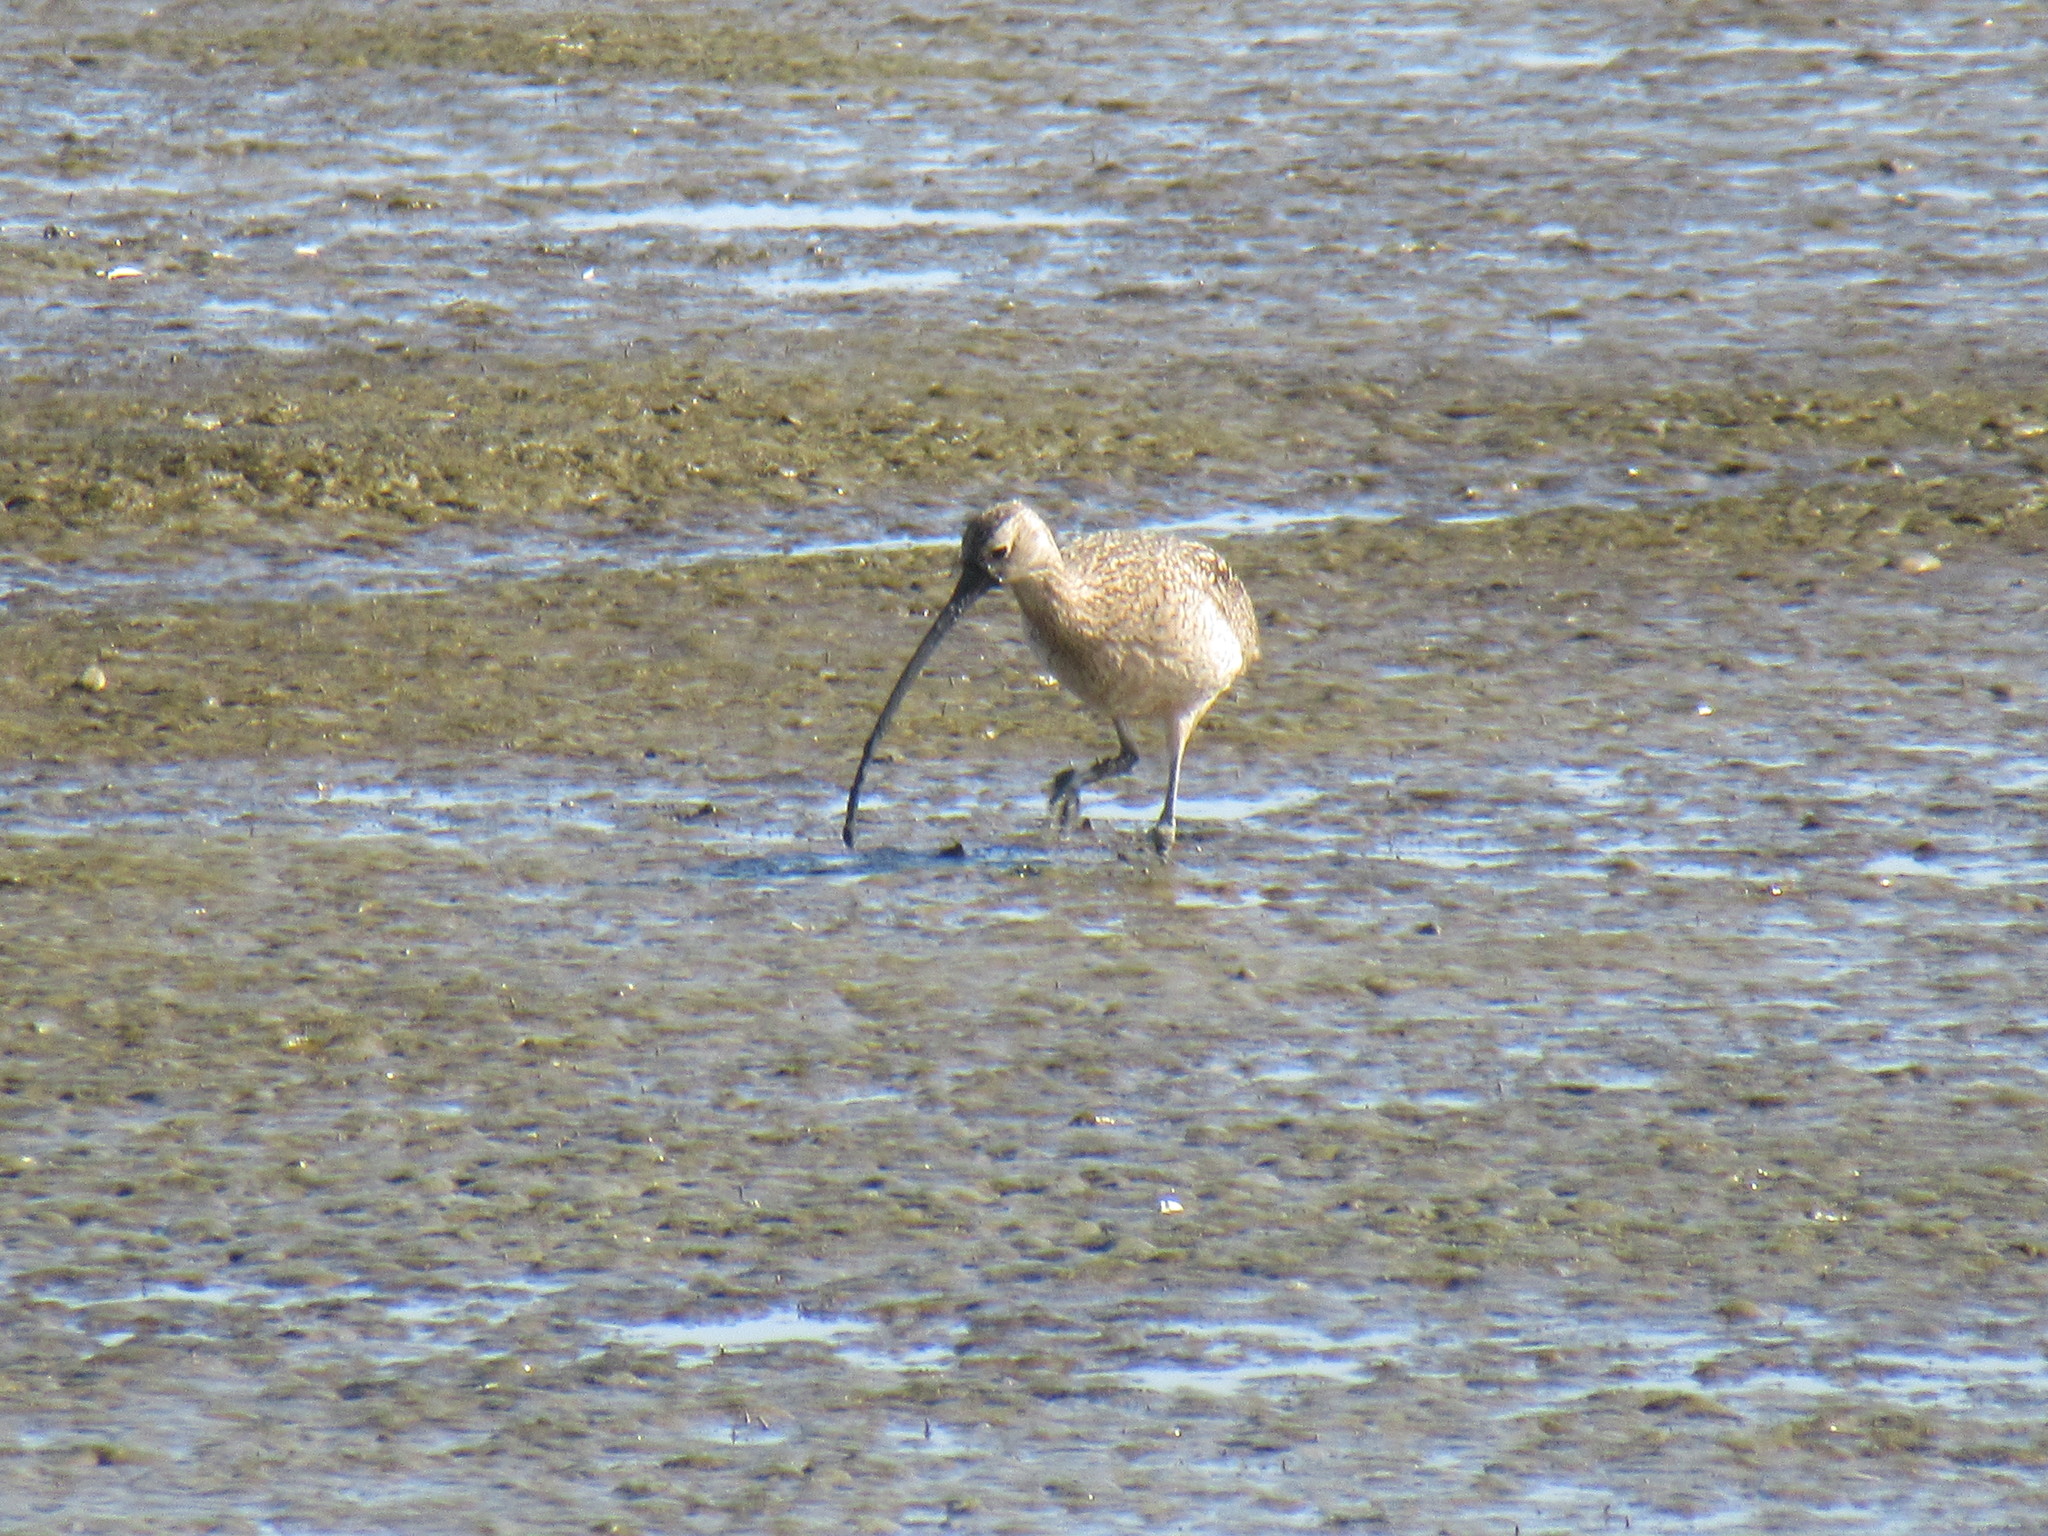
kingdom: Animalia
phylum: Chordata
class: Aves
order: Charadriiformes
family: Scolopacidae
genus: Numenius
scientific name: Numenius americanus
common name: Long-billed curlew
